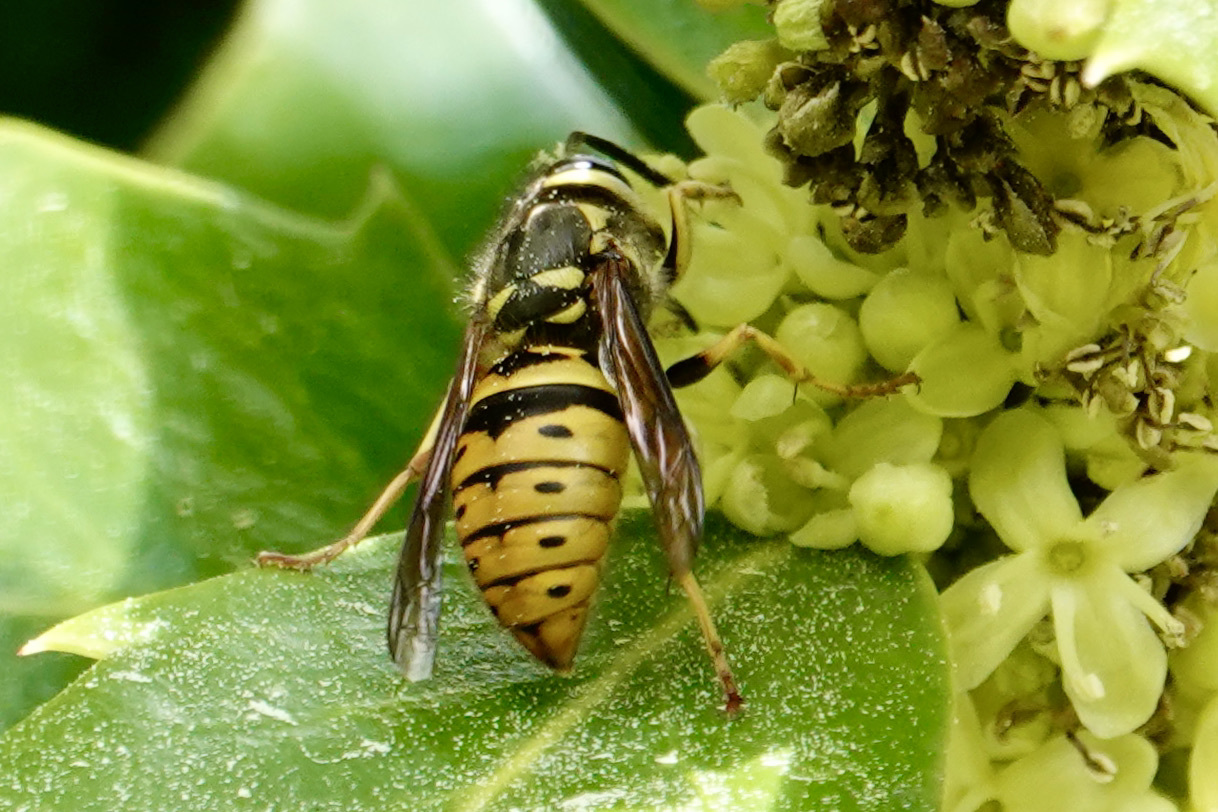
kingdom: Animalia
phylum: Arthropoda
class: Insecta
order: Hymenoptera
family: Vespidae
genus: Vespula
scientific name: Vespula maculifrons
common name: Eastern yellowjacket
